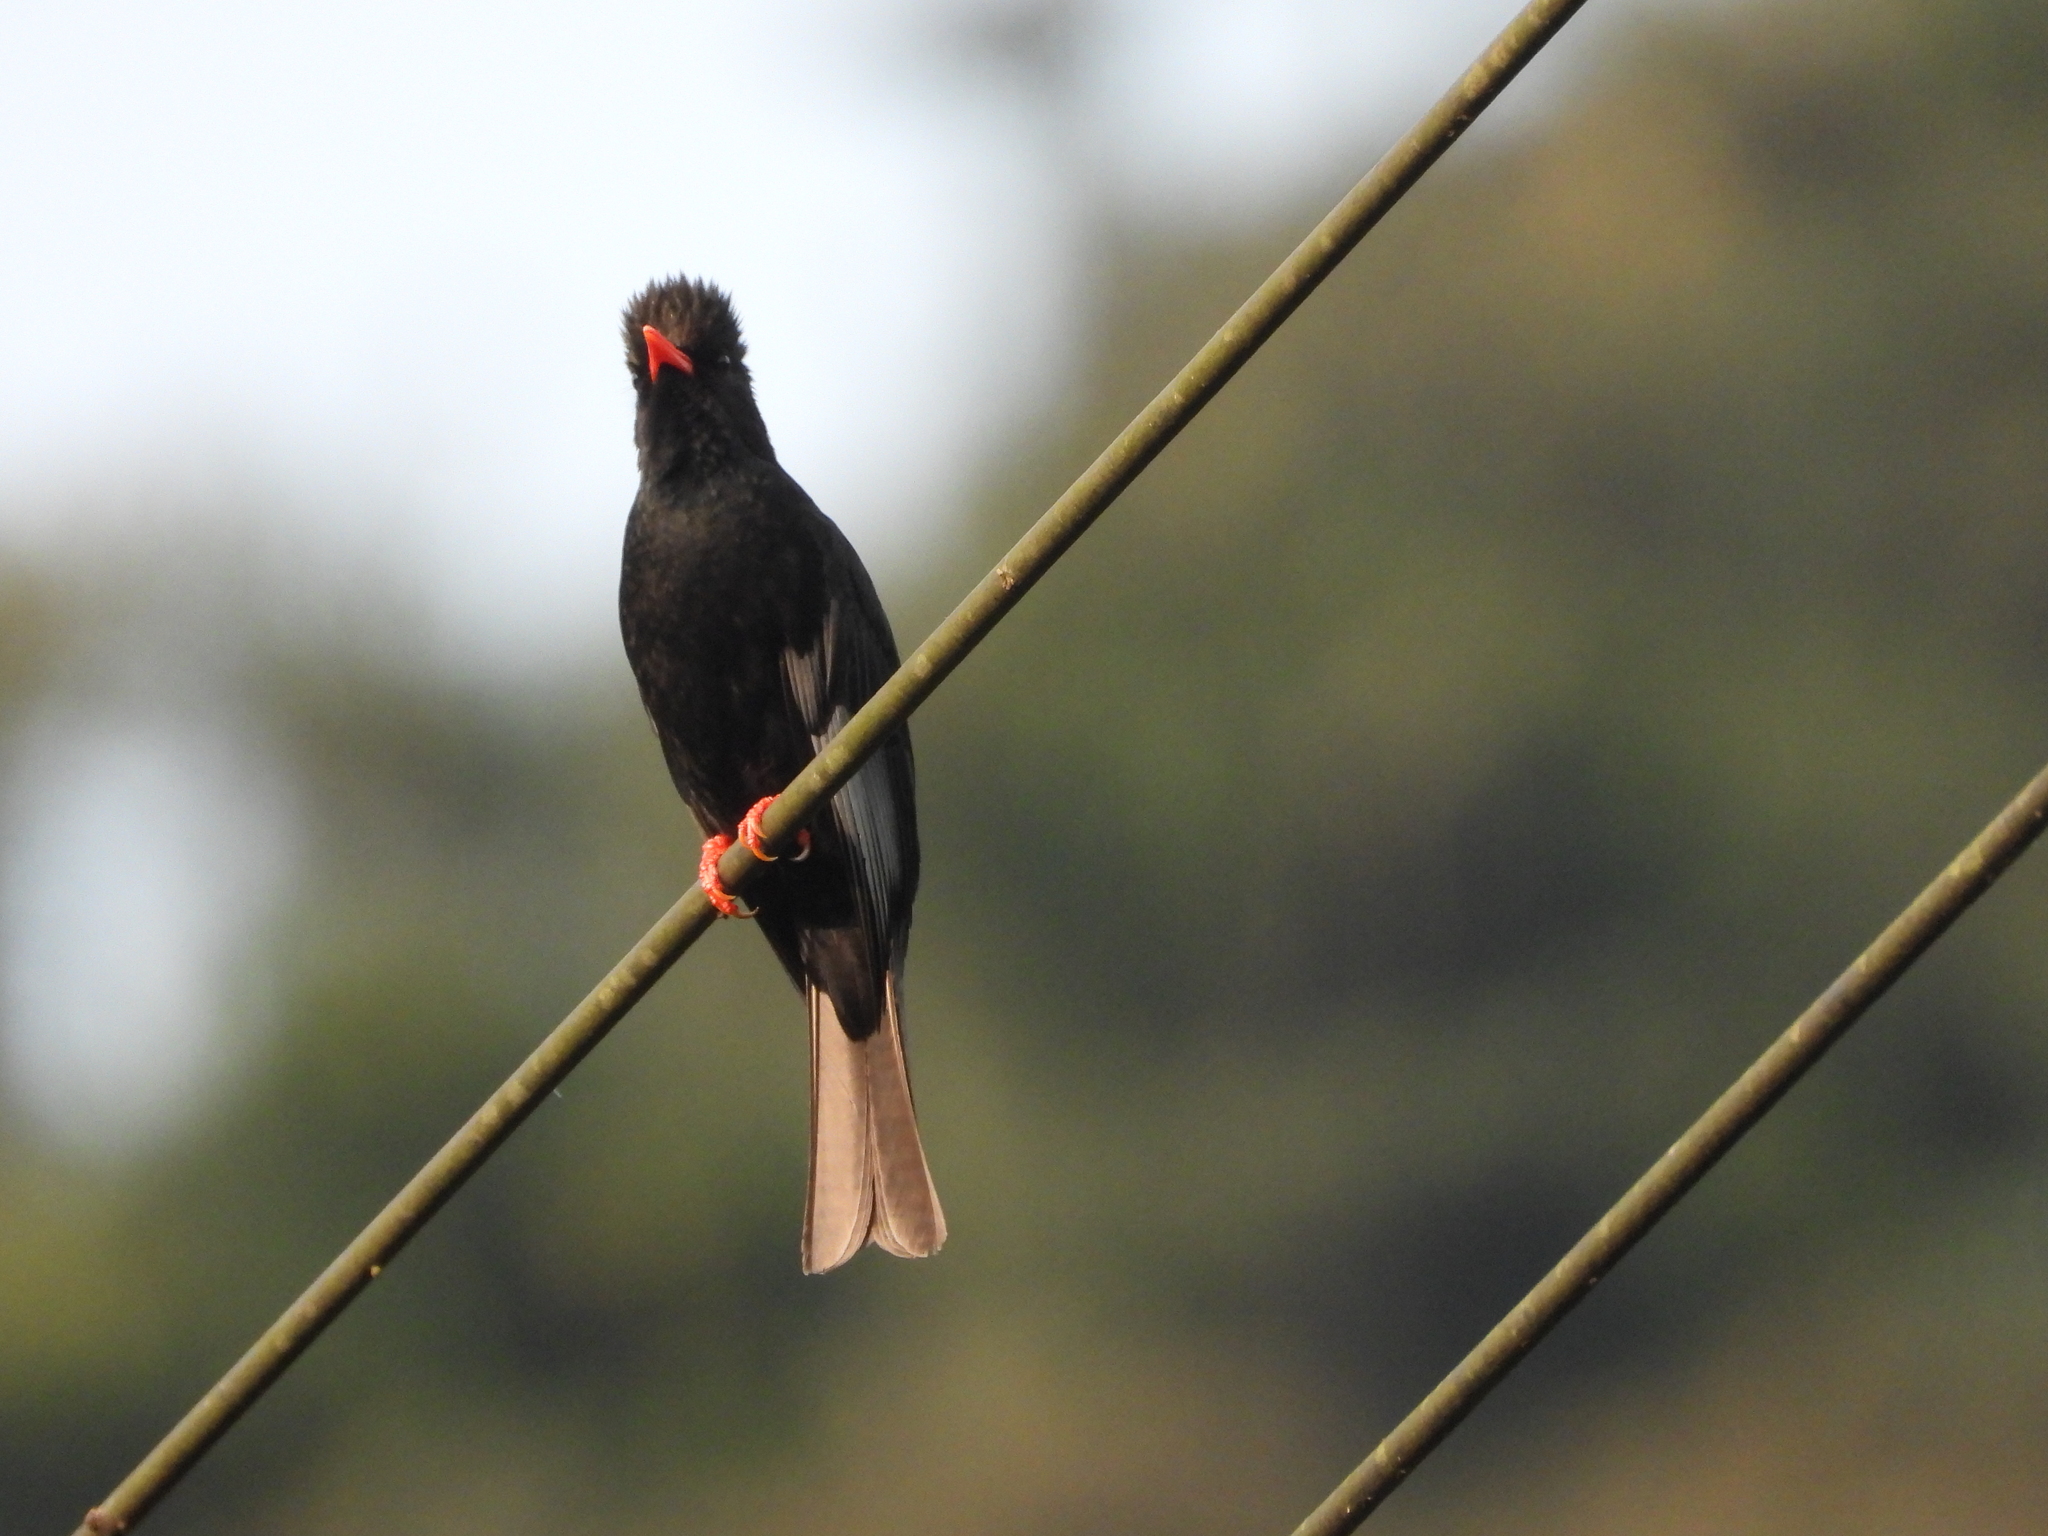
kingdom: Animalia
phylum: Chordata
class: Aves
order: Passeriformes
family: Pycnonotidae
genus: Hypsipetes
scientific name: Hypsipetes leucocephalus
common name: Black bulbul
